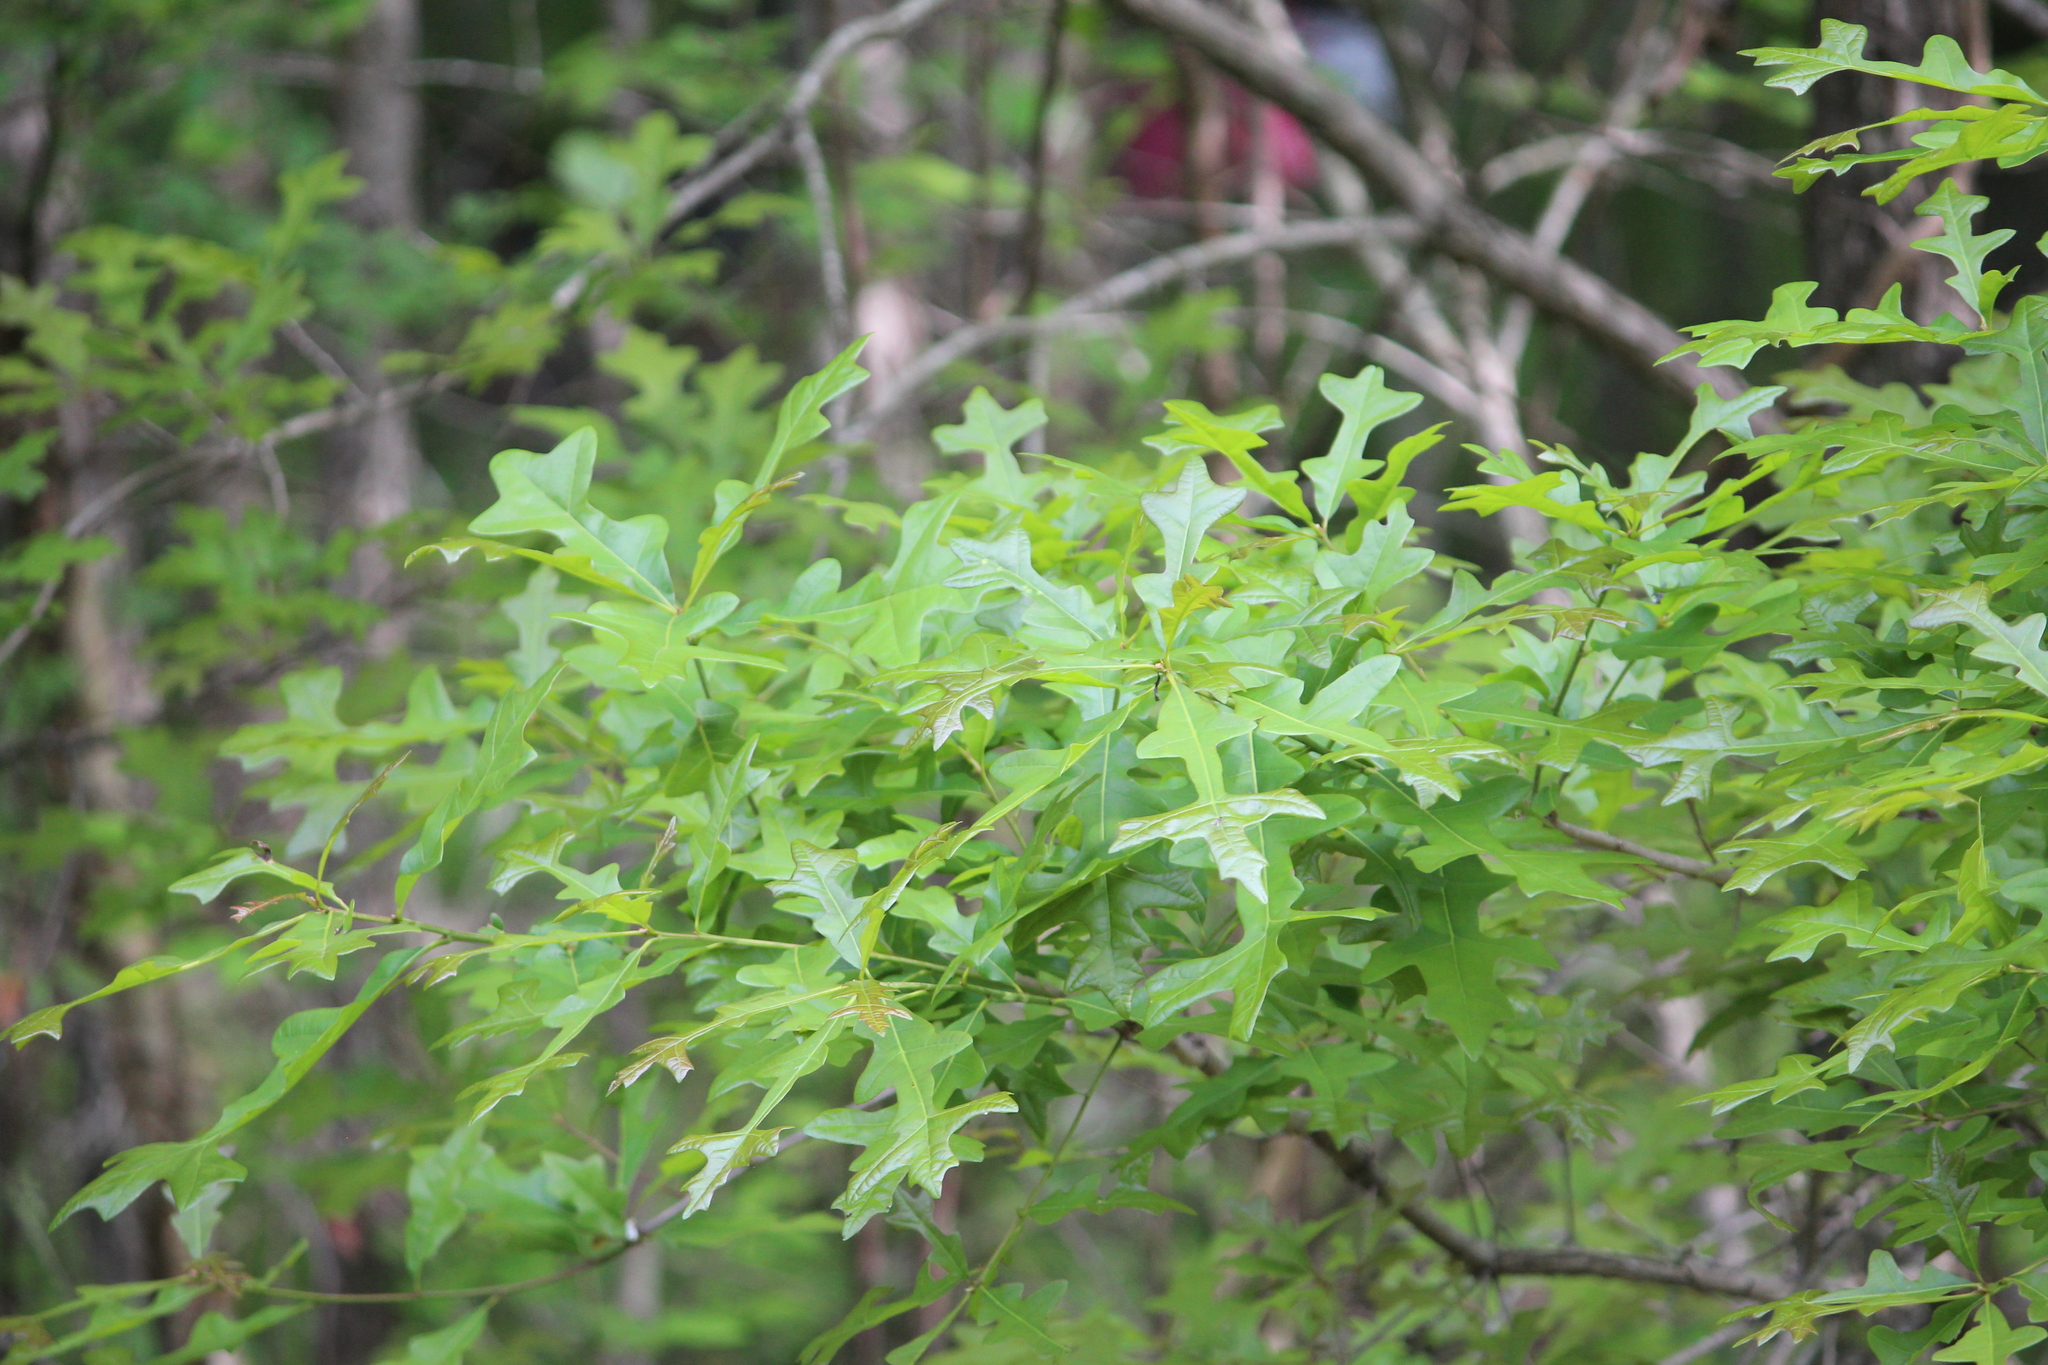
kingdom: Plantae
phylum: Tracheophyta
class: Magnoliopsida
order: Fagales
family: Fagaceae
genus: Quercus
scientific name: Quercus lyrata
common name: Overcup oak
